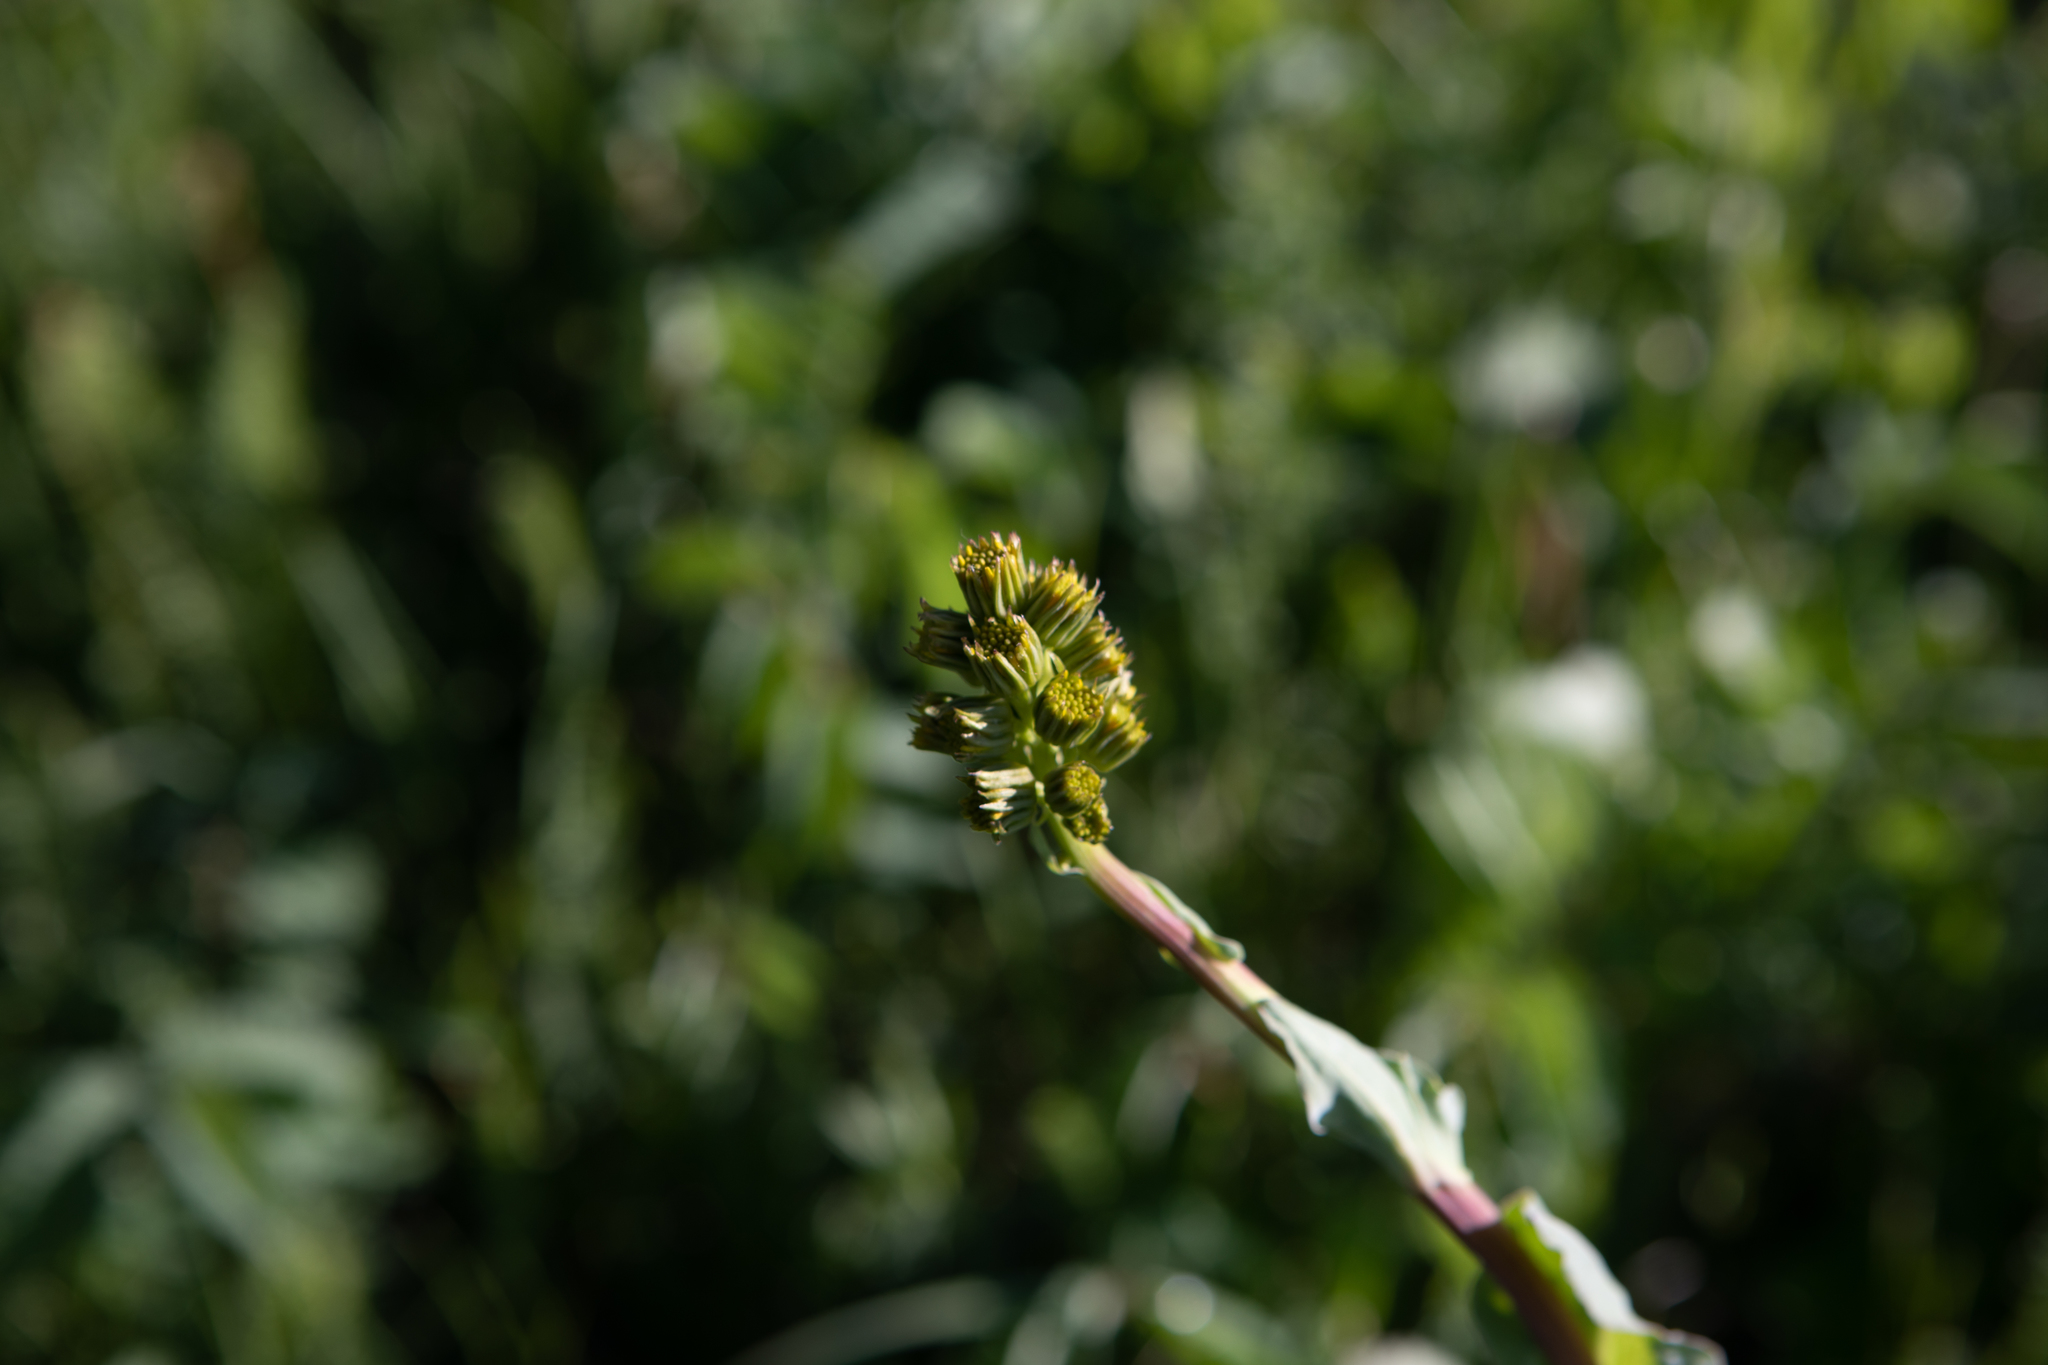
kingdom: Plantae
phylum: Tracheophyta
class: Magnoliopsida
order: Asterales
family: Asteraceae
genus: Ligularia
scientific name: Ligularia glauca
